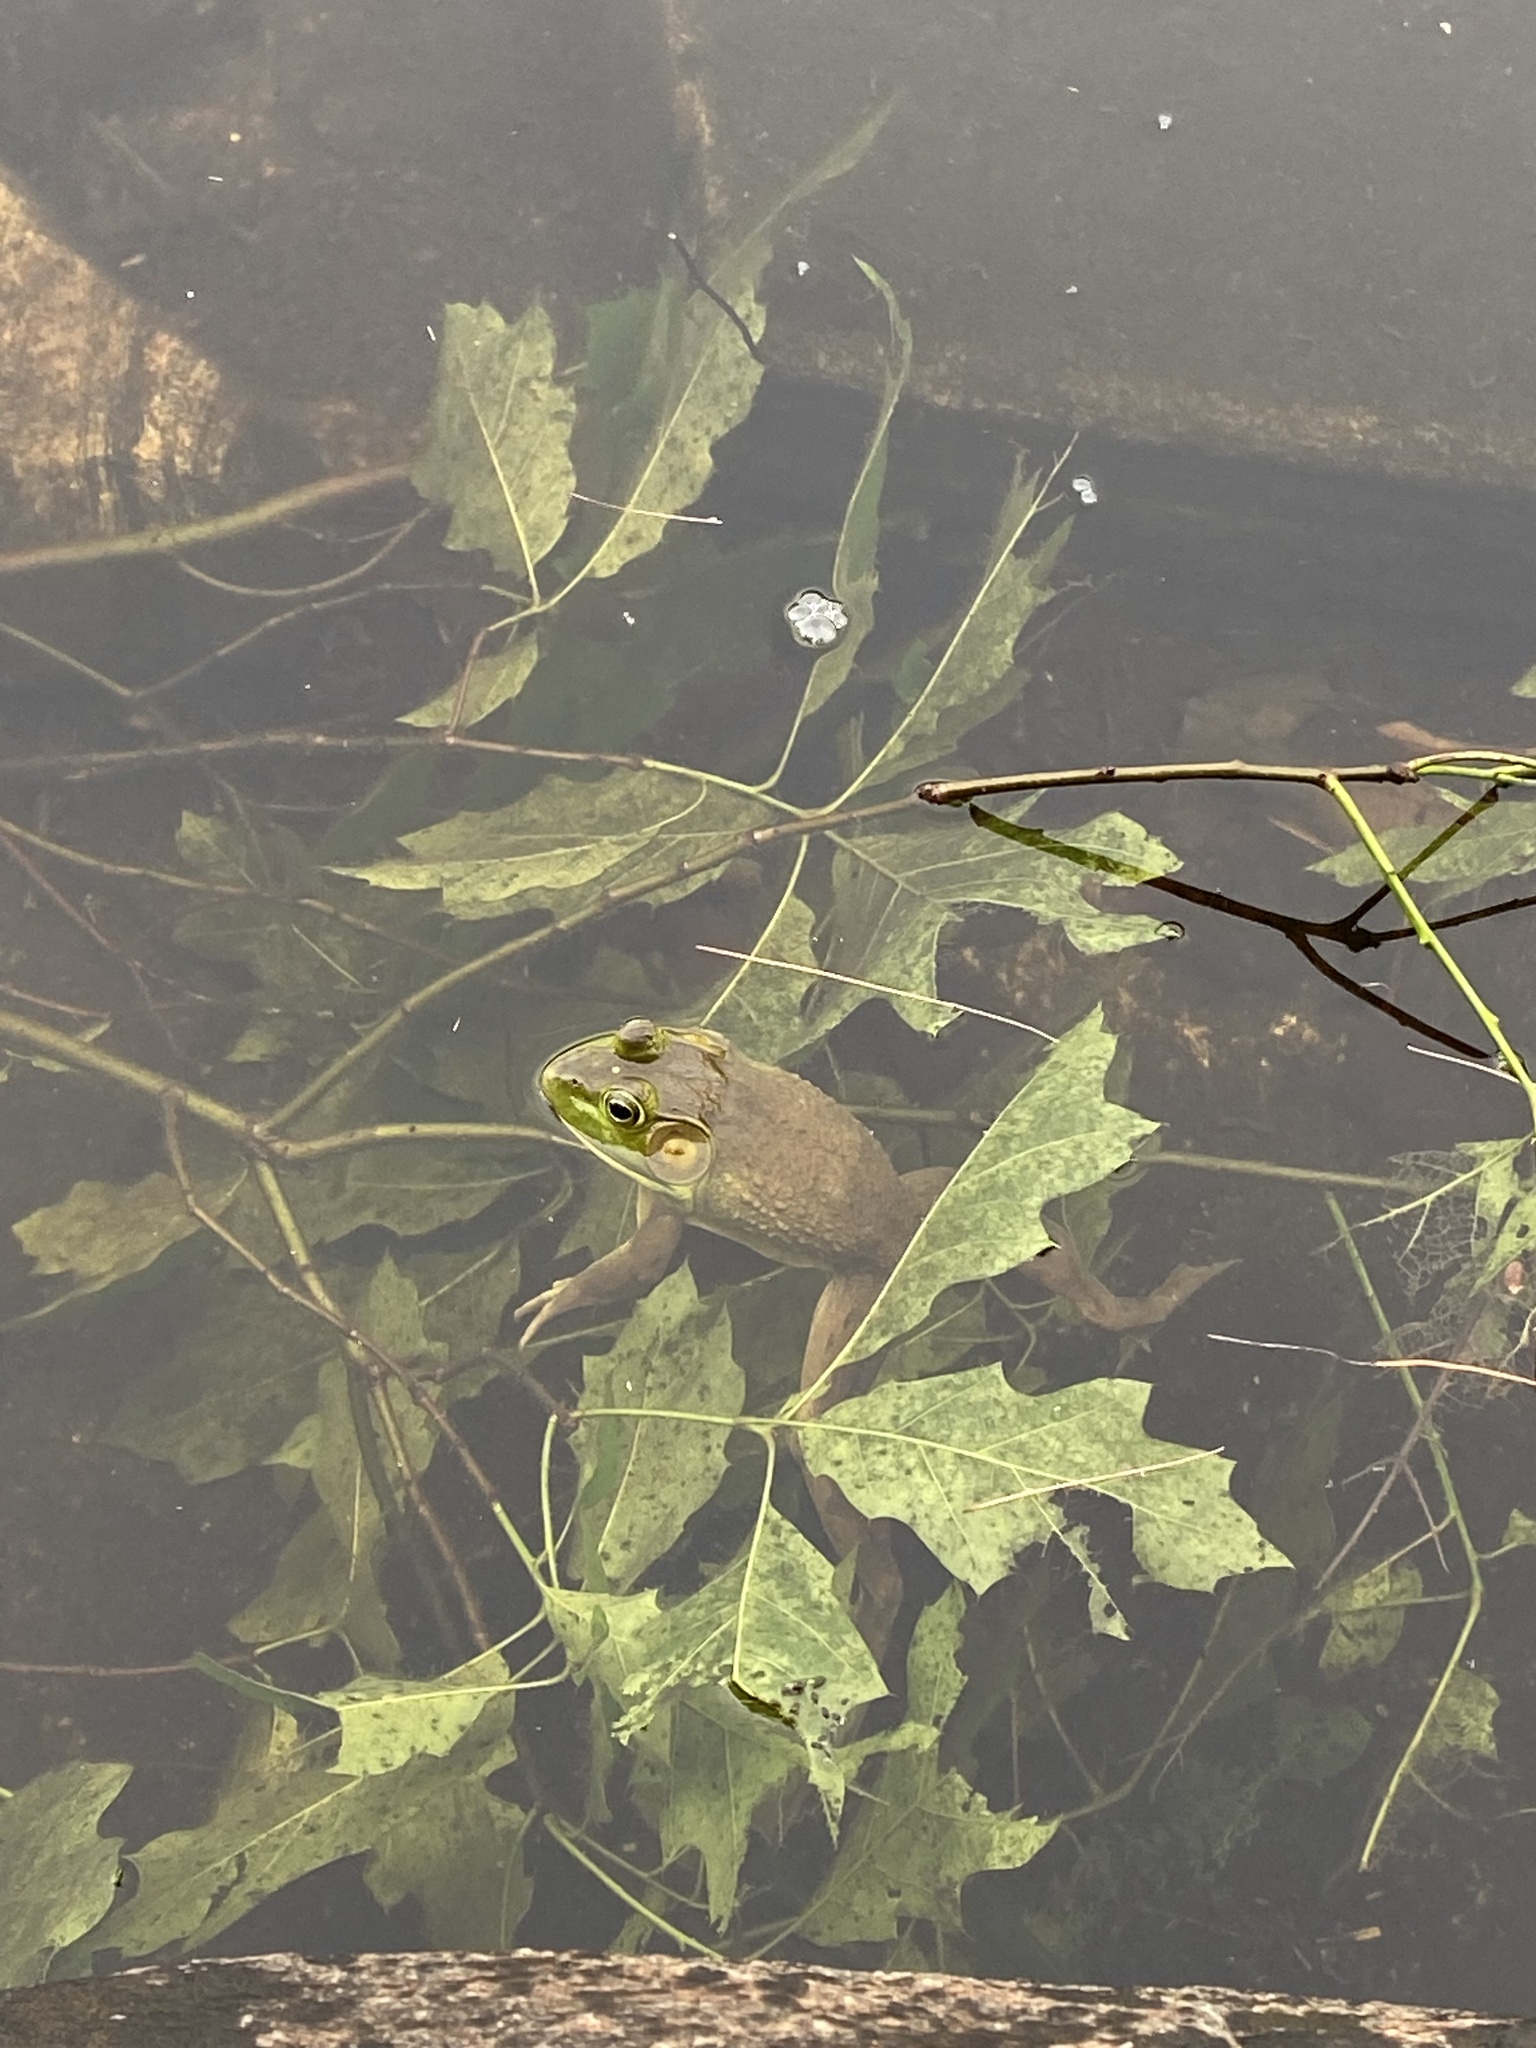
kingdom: Animalia
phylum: Chordata
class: Amphibia
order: Anura
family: Ranidae
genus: Lithobates
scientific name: Lithobates catesbeianus
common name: American bullfrog
